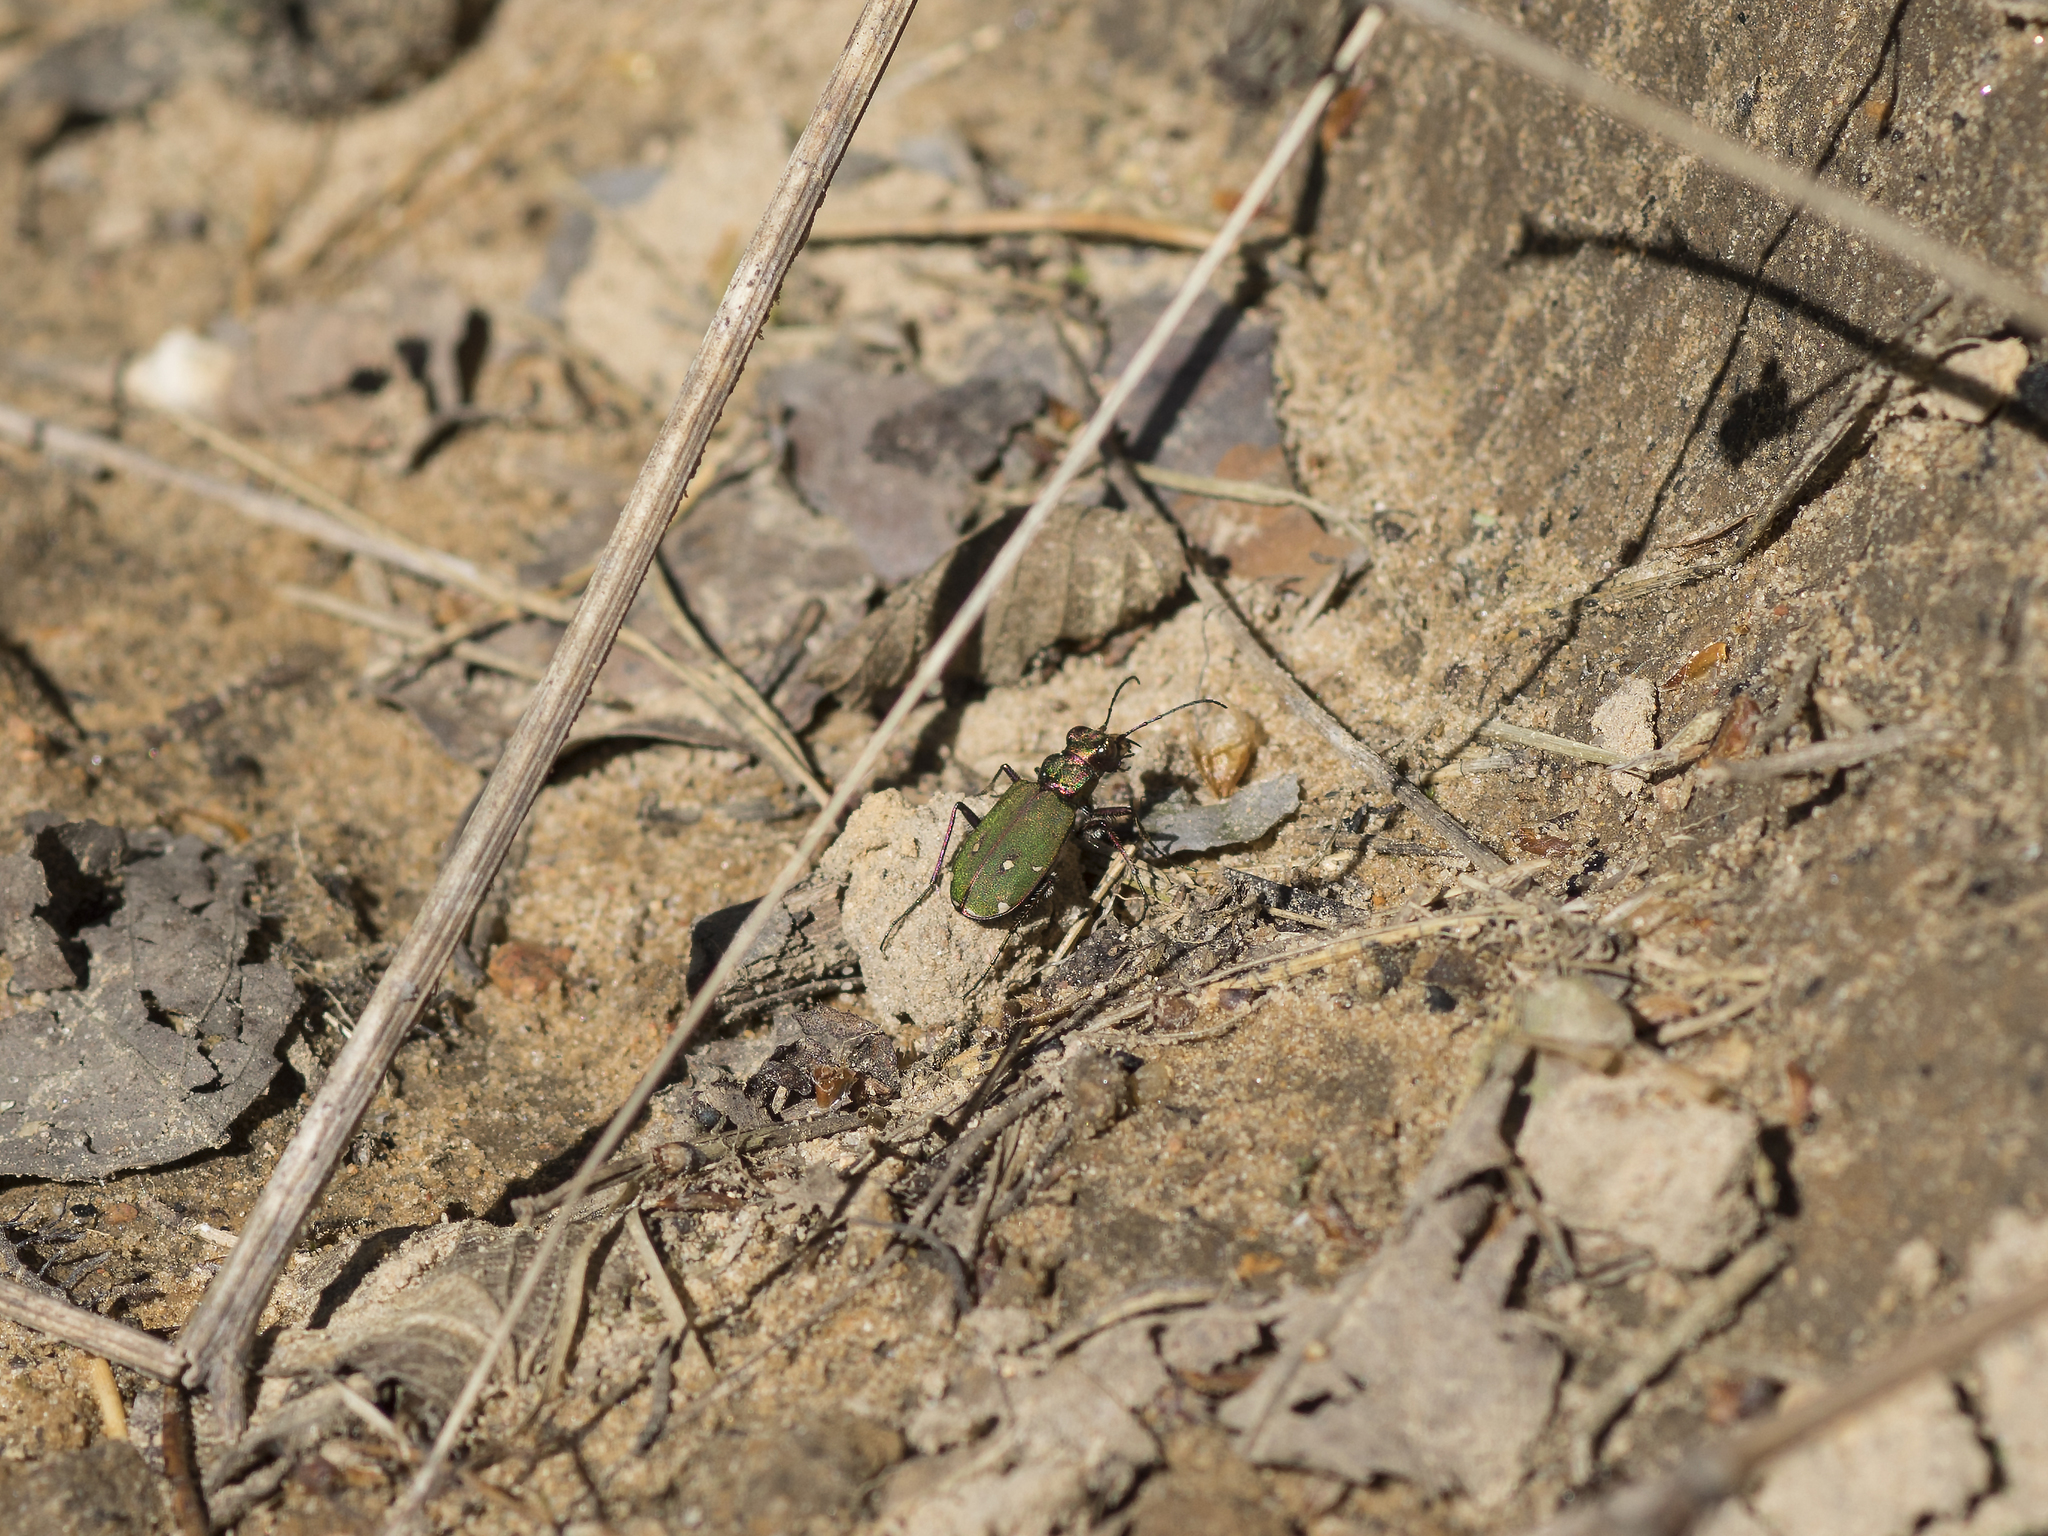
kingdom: Animalia
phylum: Arthropoda
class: Insecta
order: Coleoptera
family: Carabidae
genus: Cicindela
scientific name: Cicindela campestris
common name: Common tiger beetle
